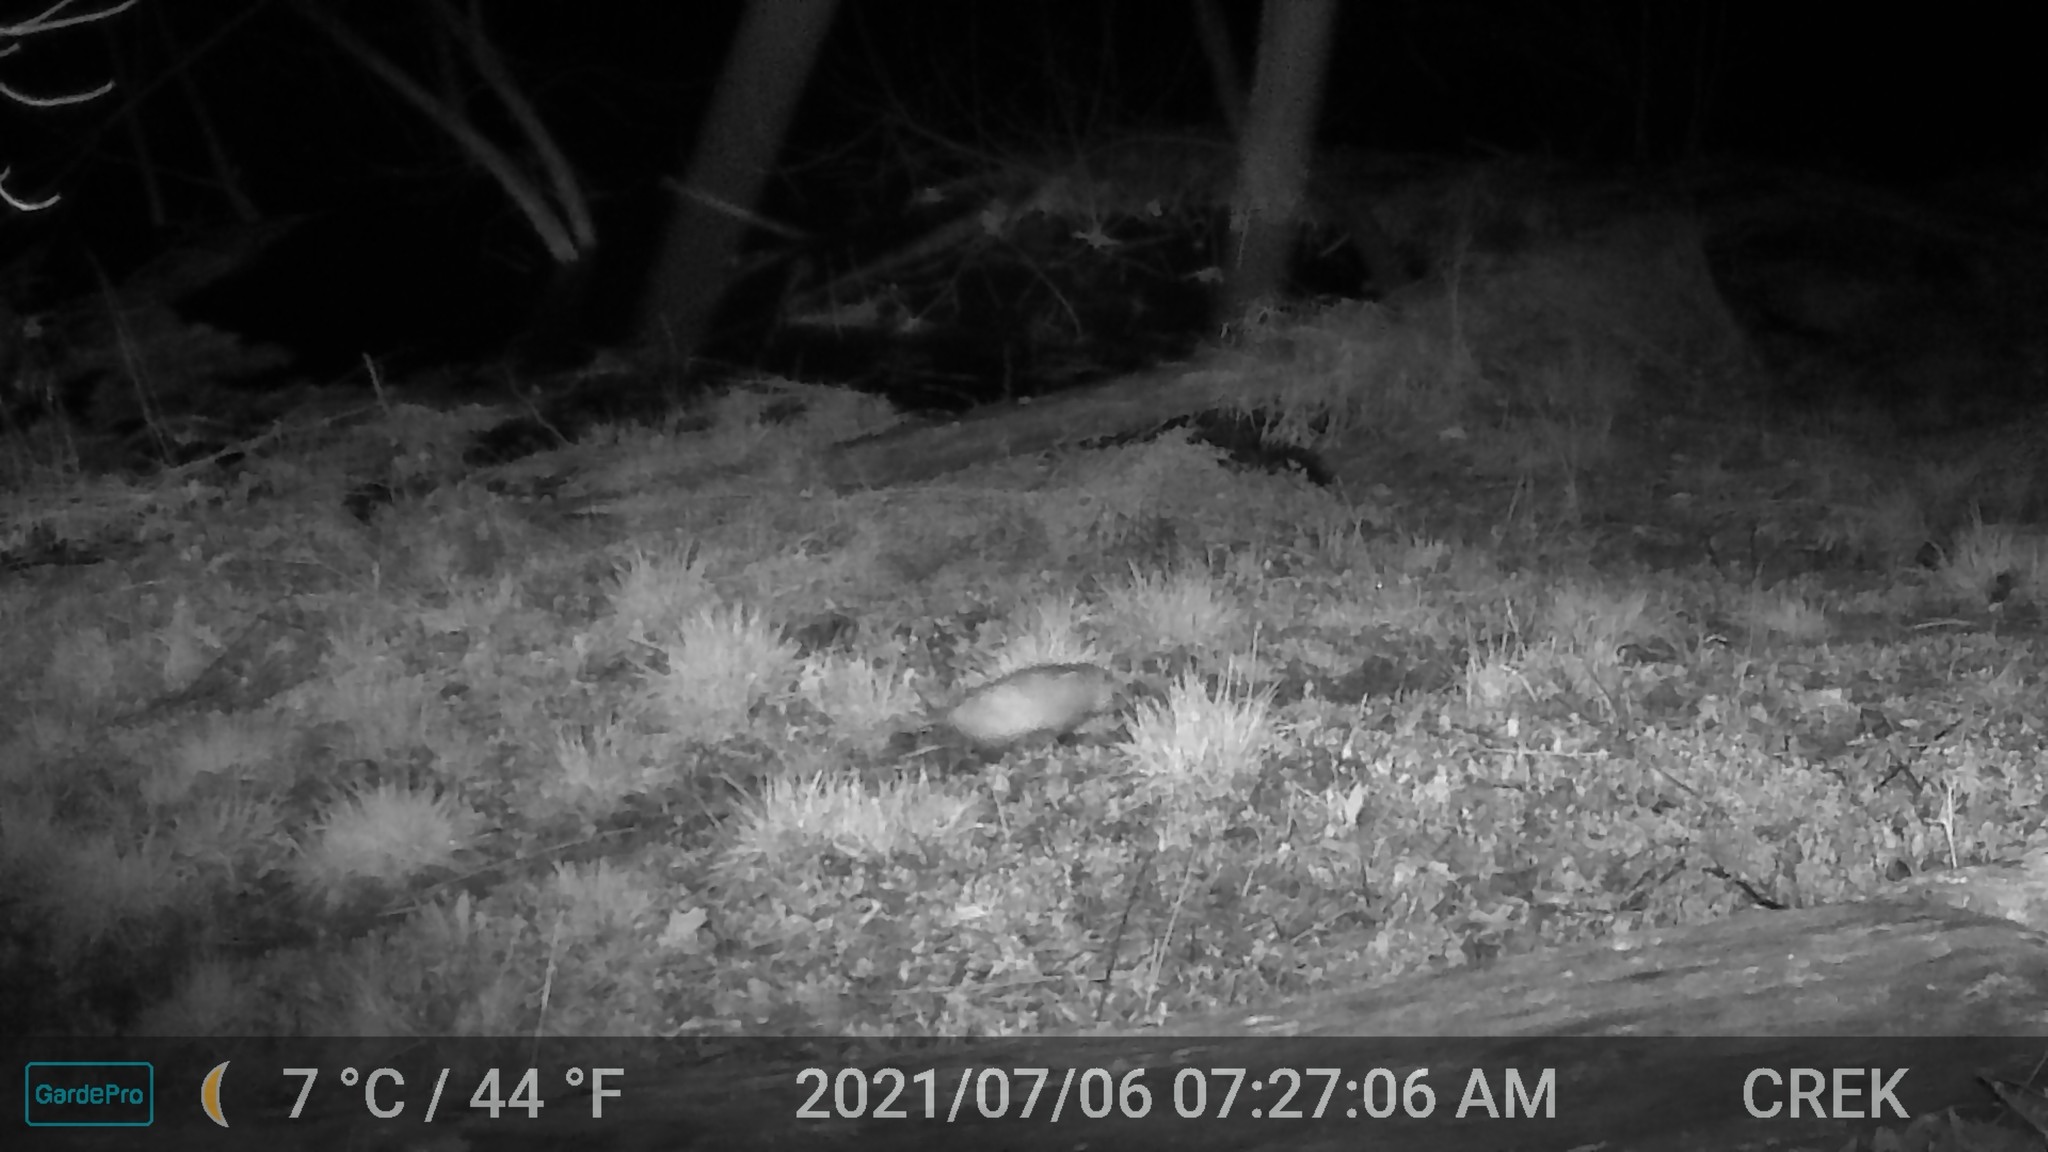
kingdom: Animalia
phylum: Chordata
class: Mammalia
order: Didelphimorphia
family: Didelphidae
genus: Didelphis
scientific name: Didelphis virginiana
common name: Virginia opossum
